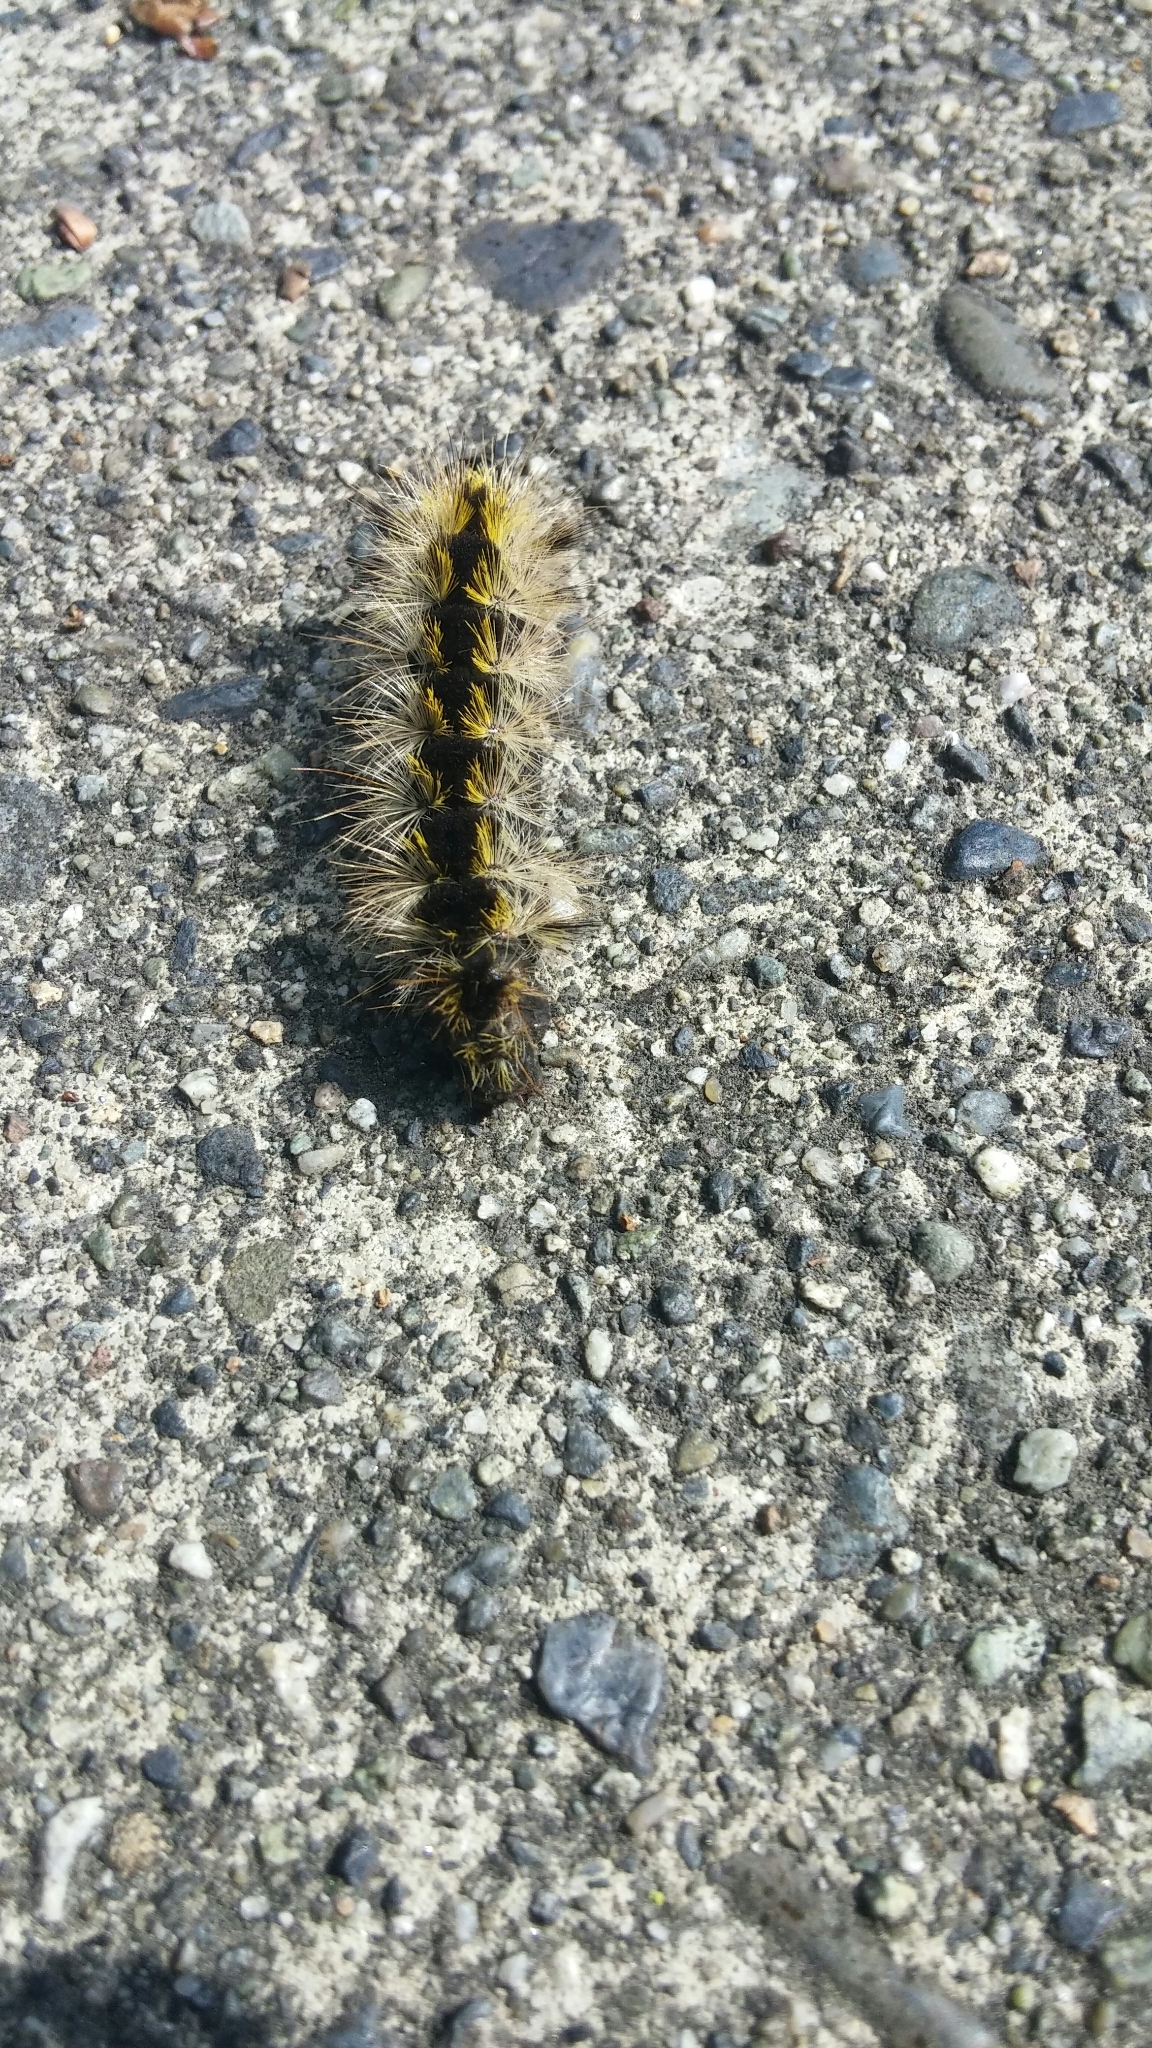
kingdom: Animalia
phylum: Arthropoda
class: Insecta
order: Lepidoptera
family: Erebidae
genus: Lophocampa
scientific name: Lophocampa argentata
